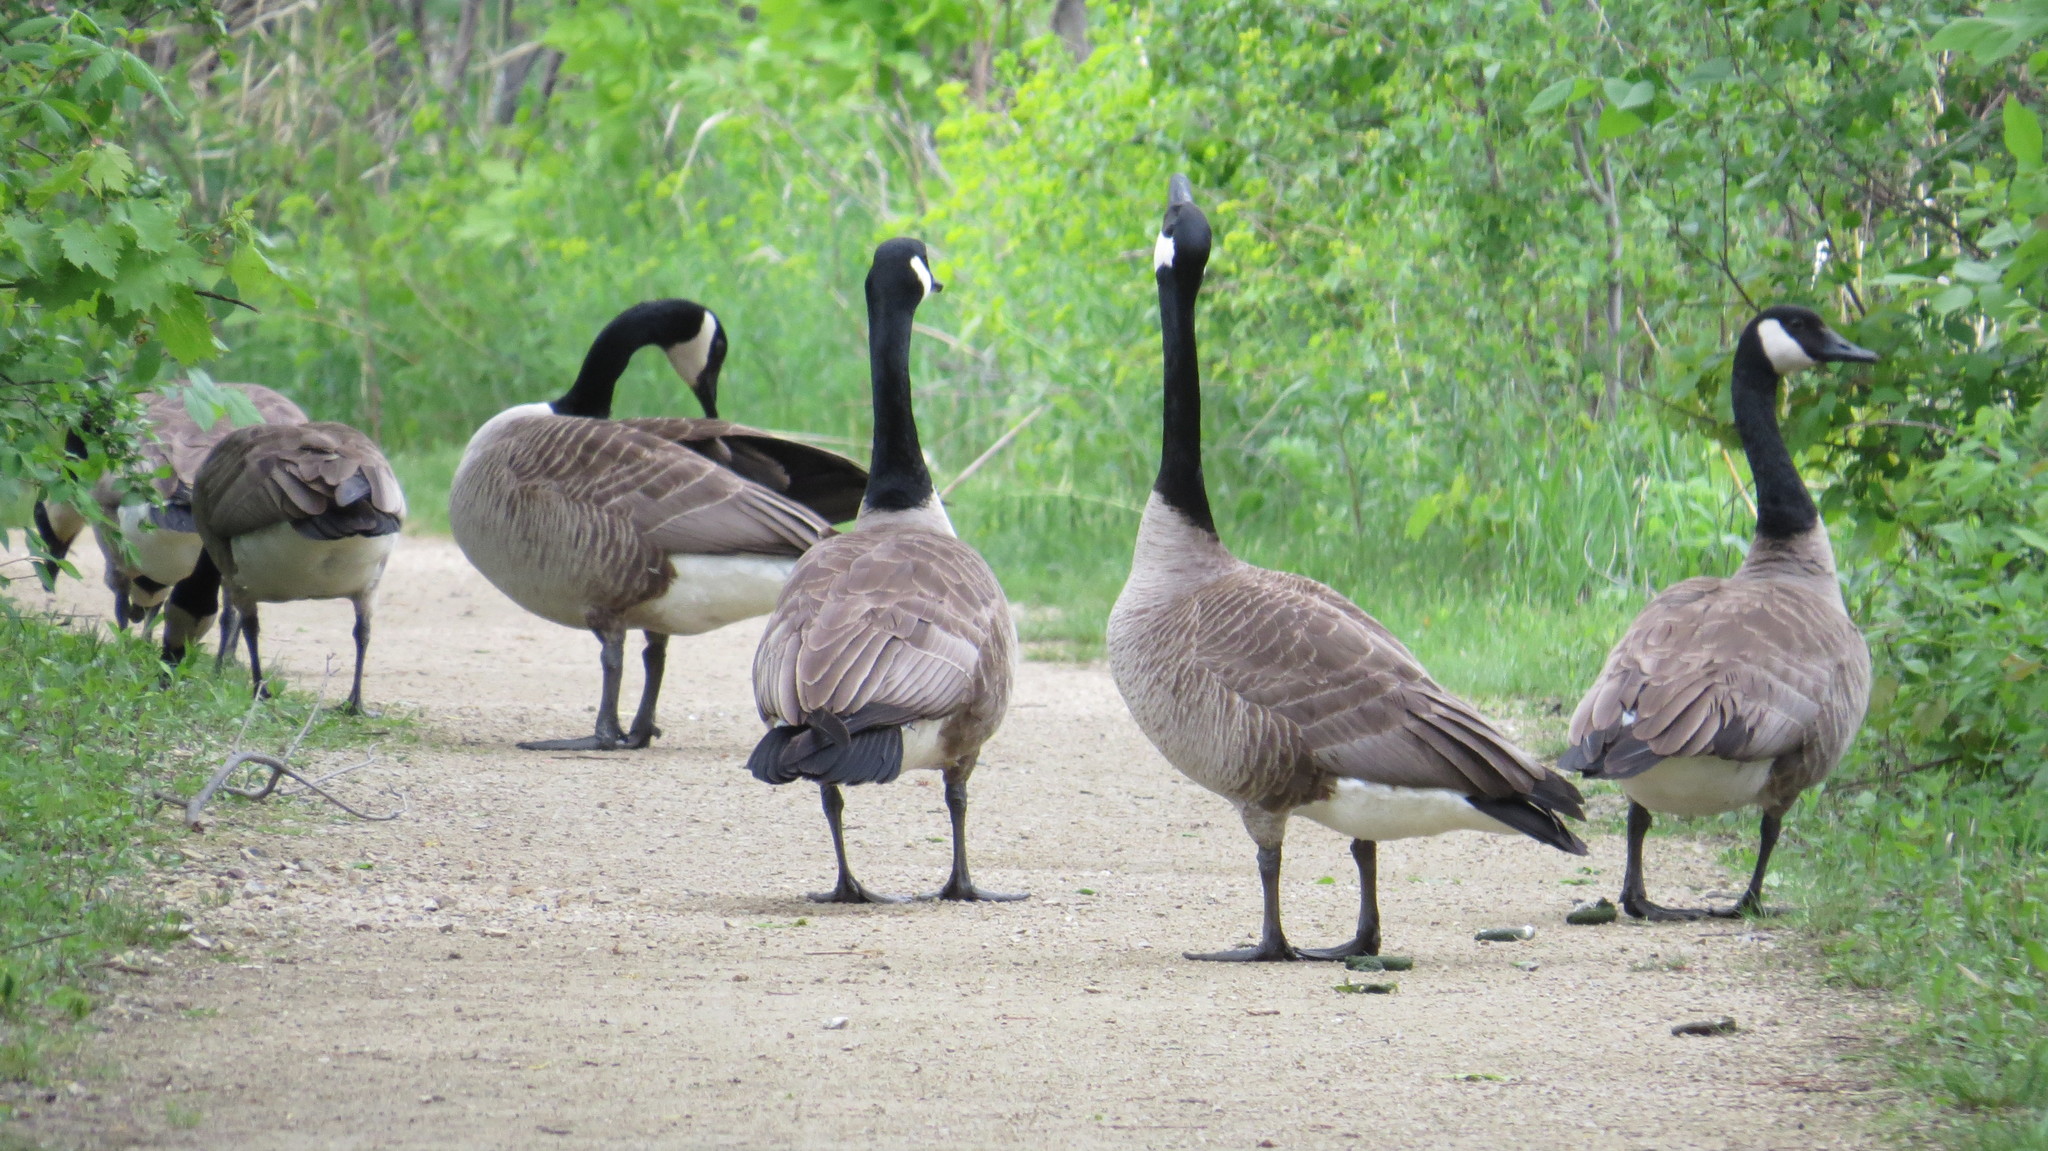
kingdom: Animalia
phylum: Chordata
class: Aves
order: Anseriformes
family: Anatidae
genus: Branta
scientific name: Branta canadensis
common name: Canada goose
